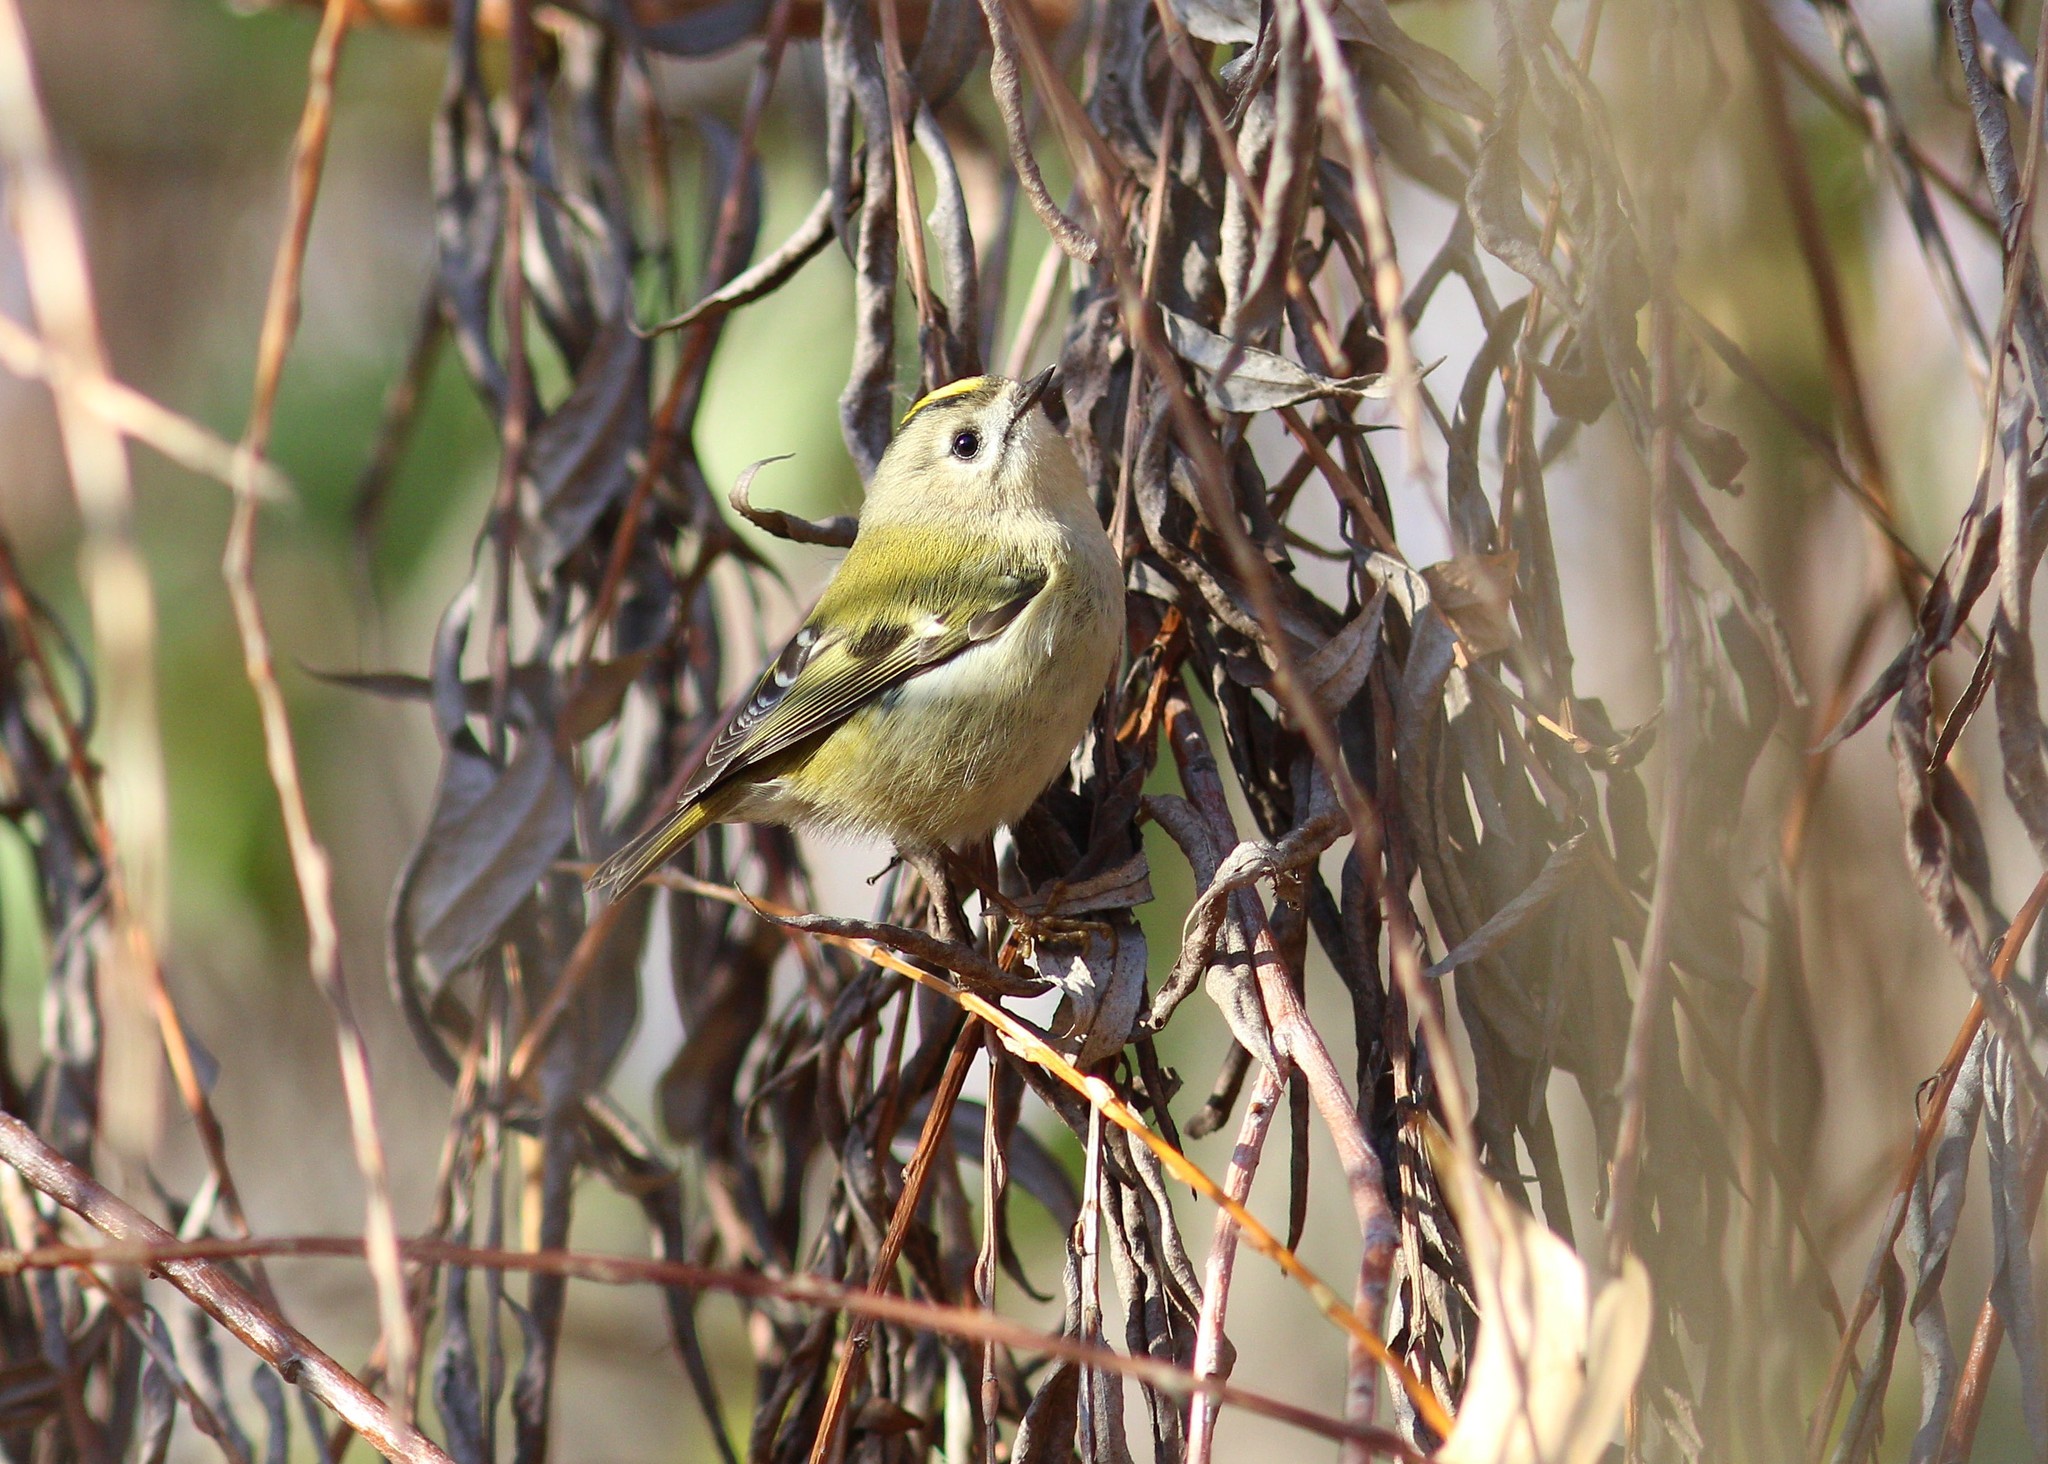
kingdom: Animalia
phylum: Chordata
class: Aves
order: Passeriformes
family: Regulidae
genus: Regulus
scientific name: Regulus regulus
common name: Goldcrest
